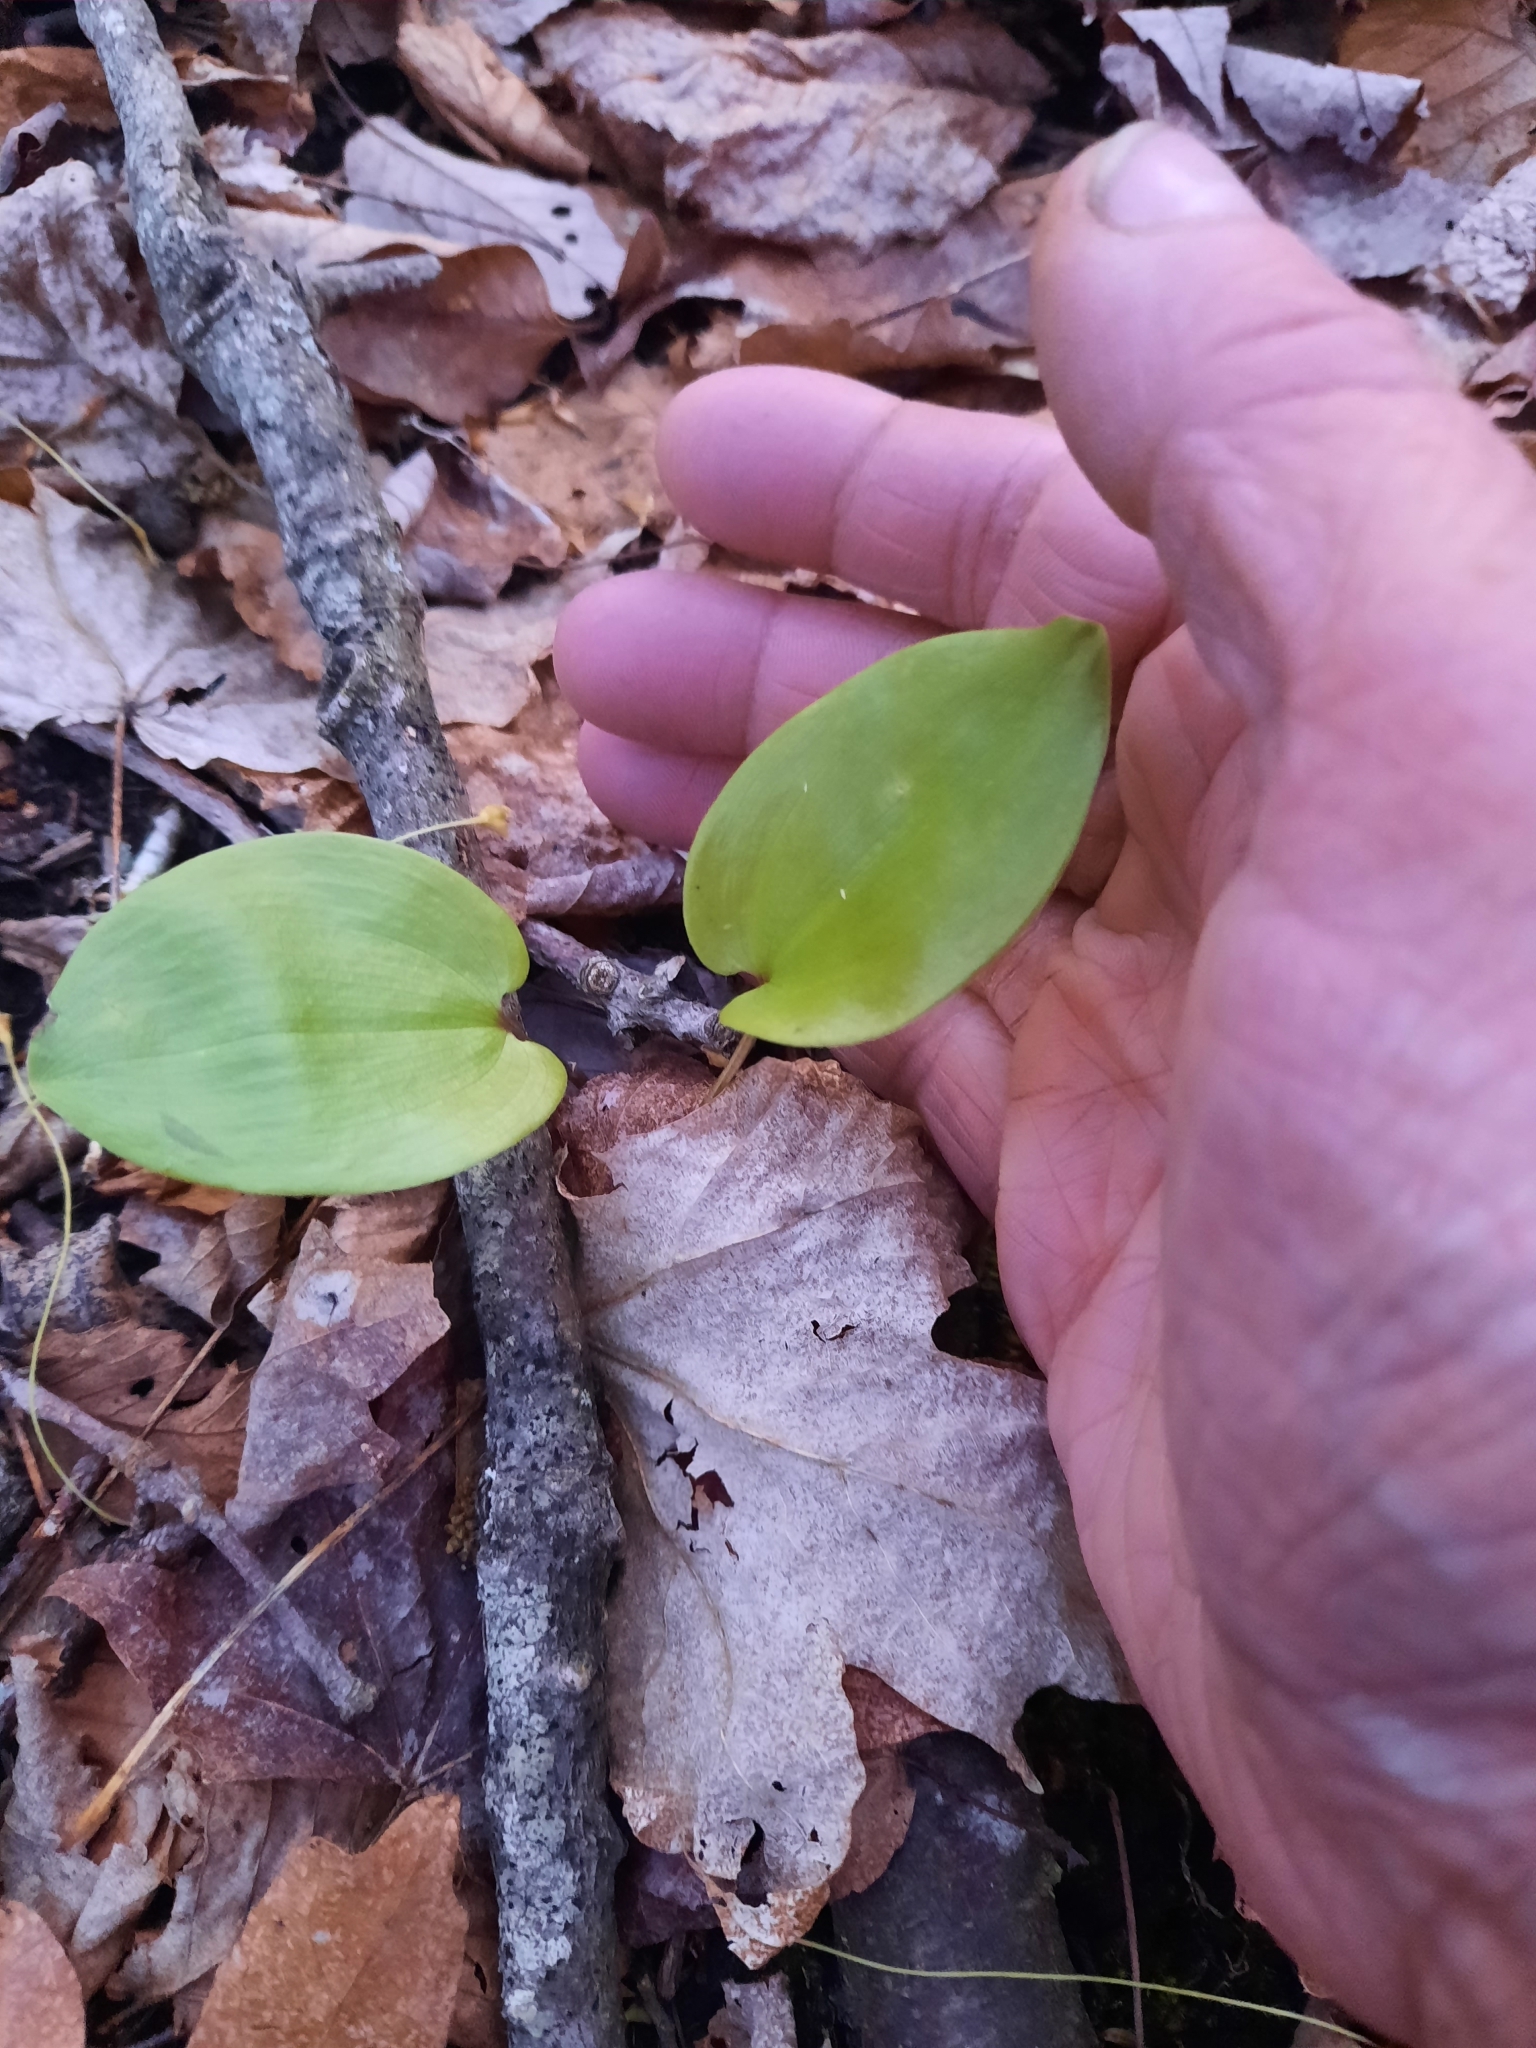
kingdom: Plantae
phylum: Tracheophyta
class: Liliopsida
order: Asparagales
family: Asparagaceae
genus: Maianthemum
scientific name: Maianthemum canadense
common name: False lily-of-the-valley
